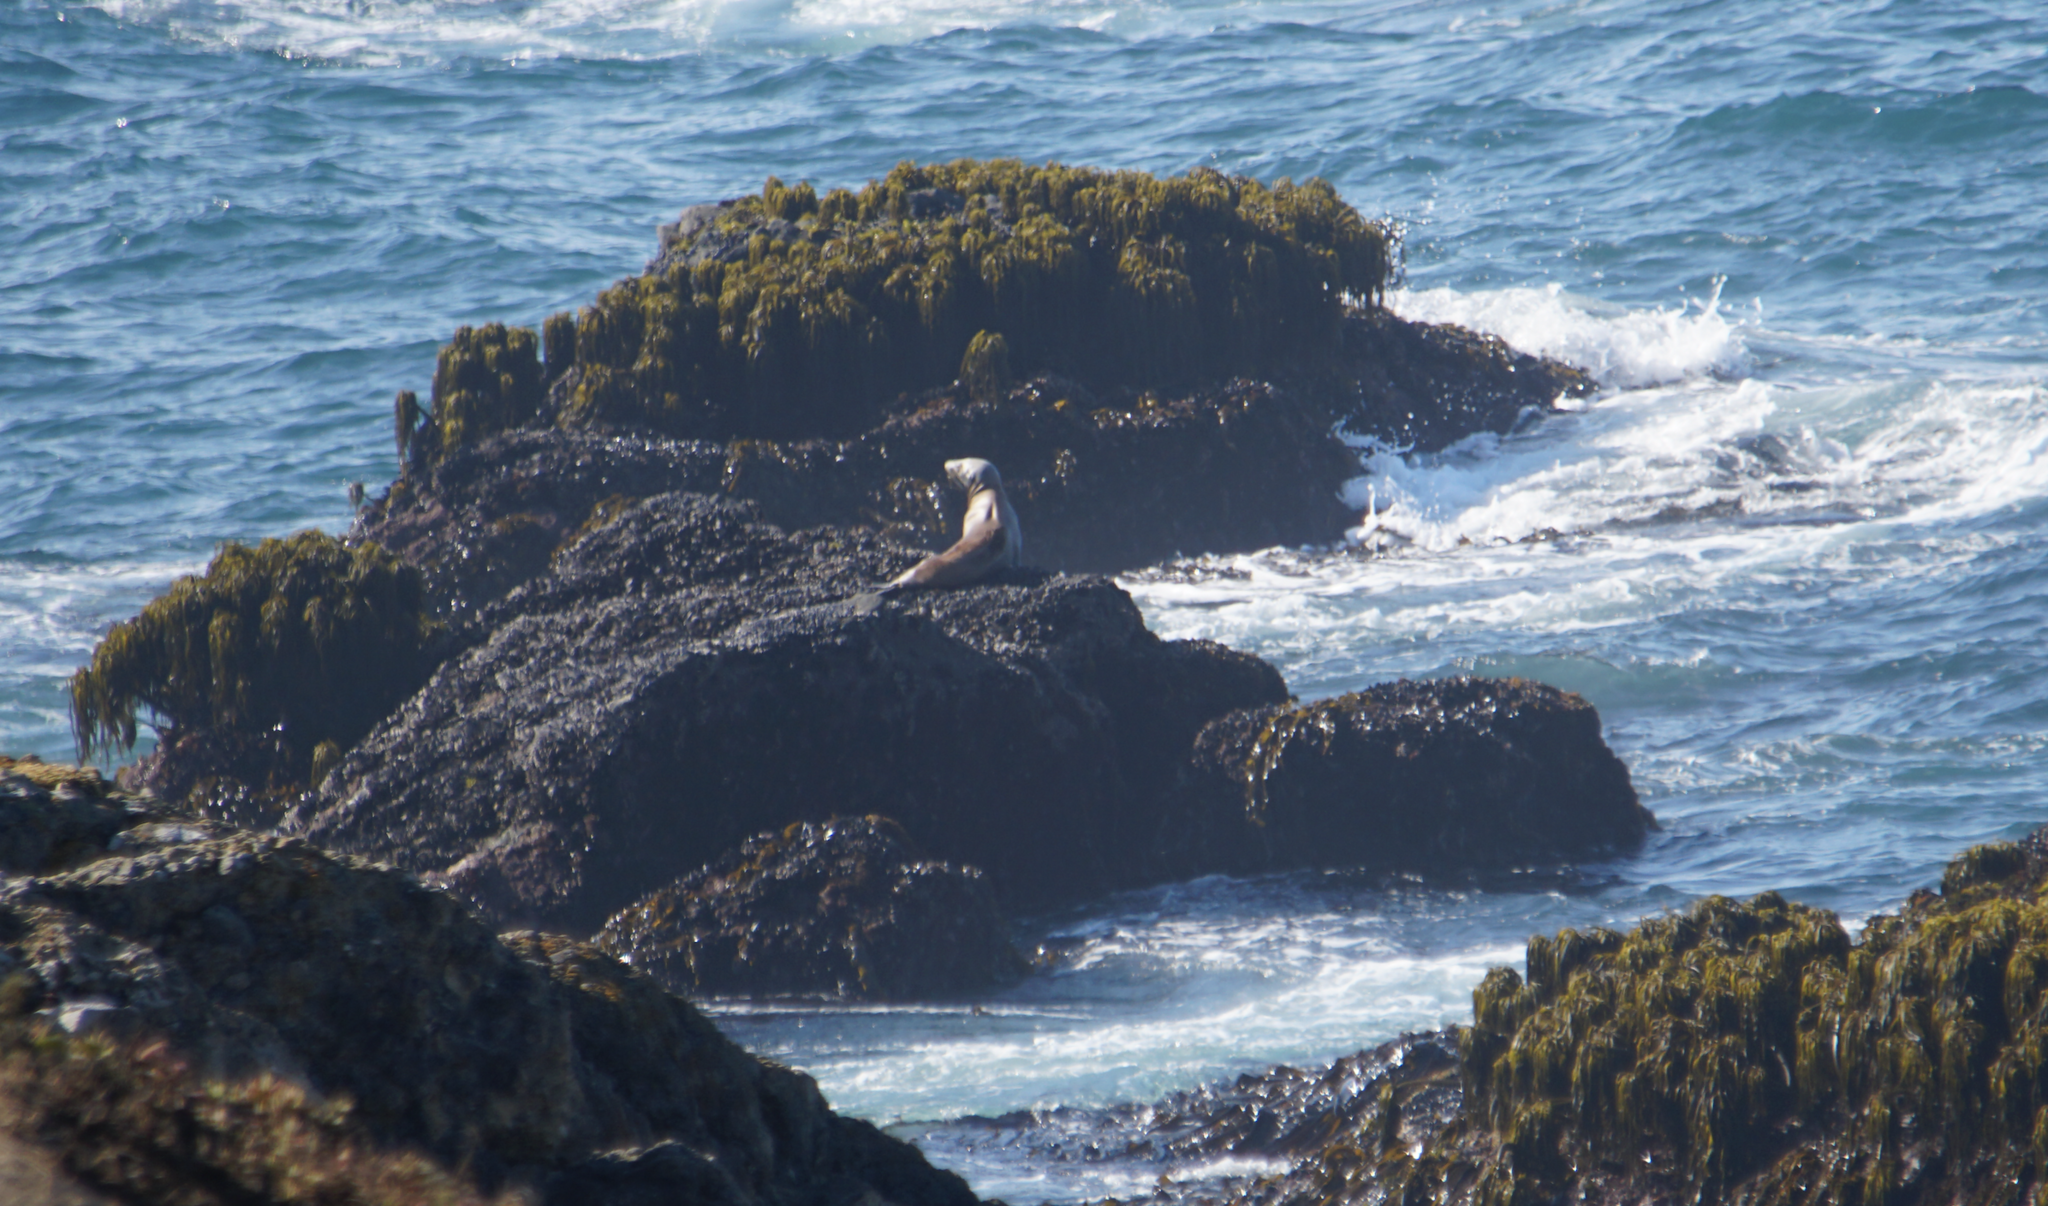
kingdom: Animalia
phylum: Chordata
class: Mammalia
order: Carnivora
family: Otariidae
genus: Zalophus
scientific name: Zalophus californianus
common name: California sea lion
